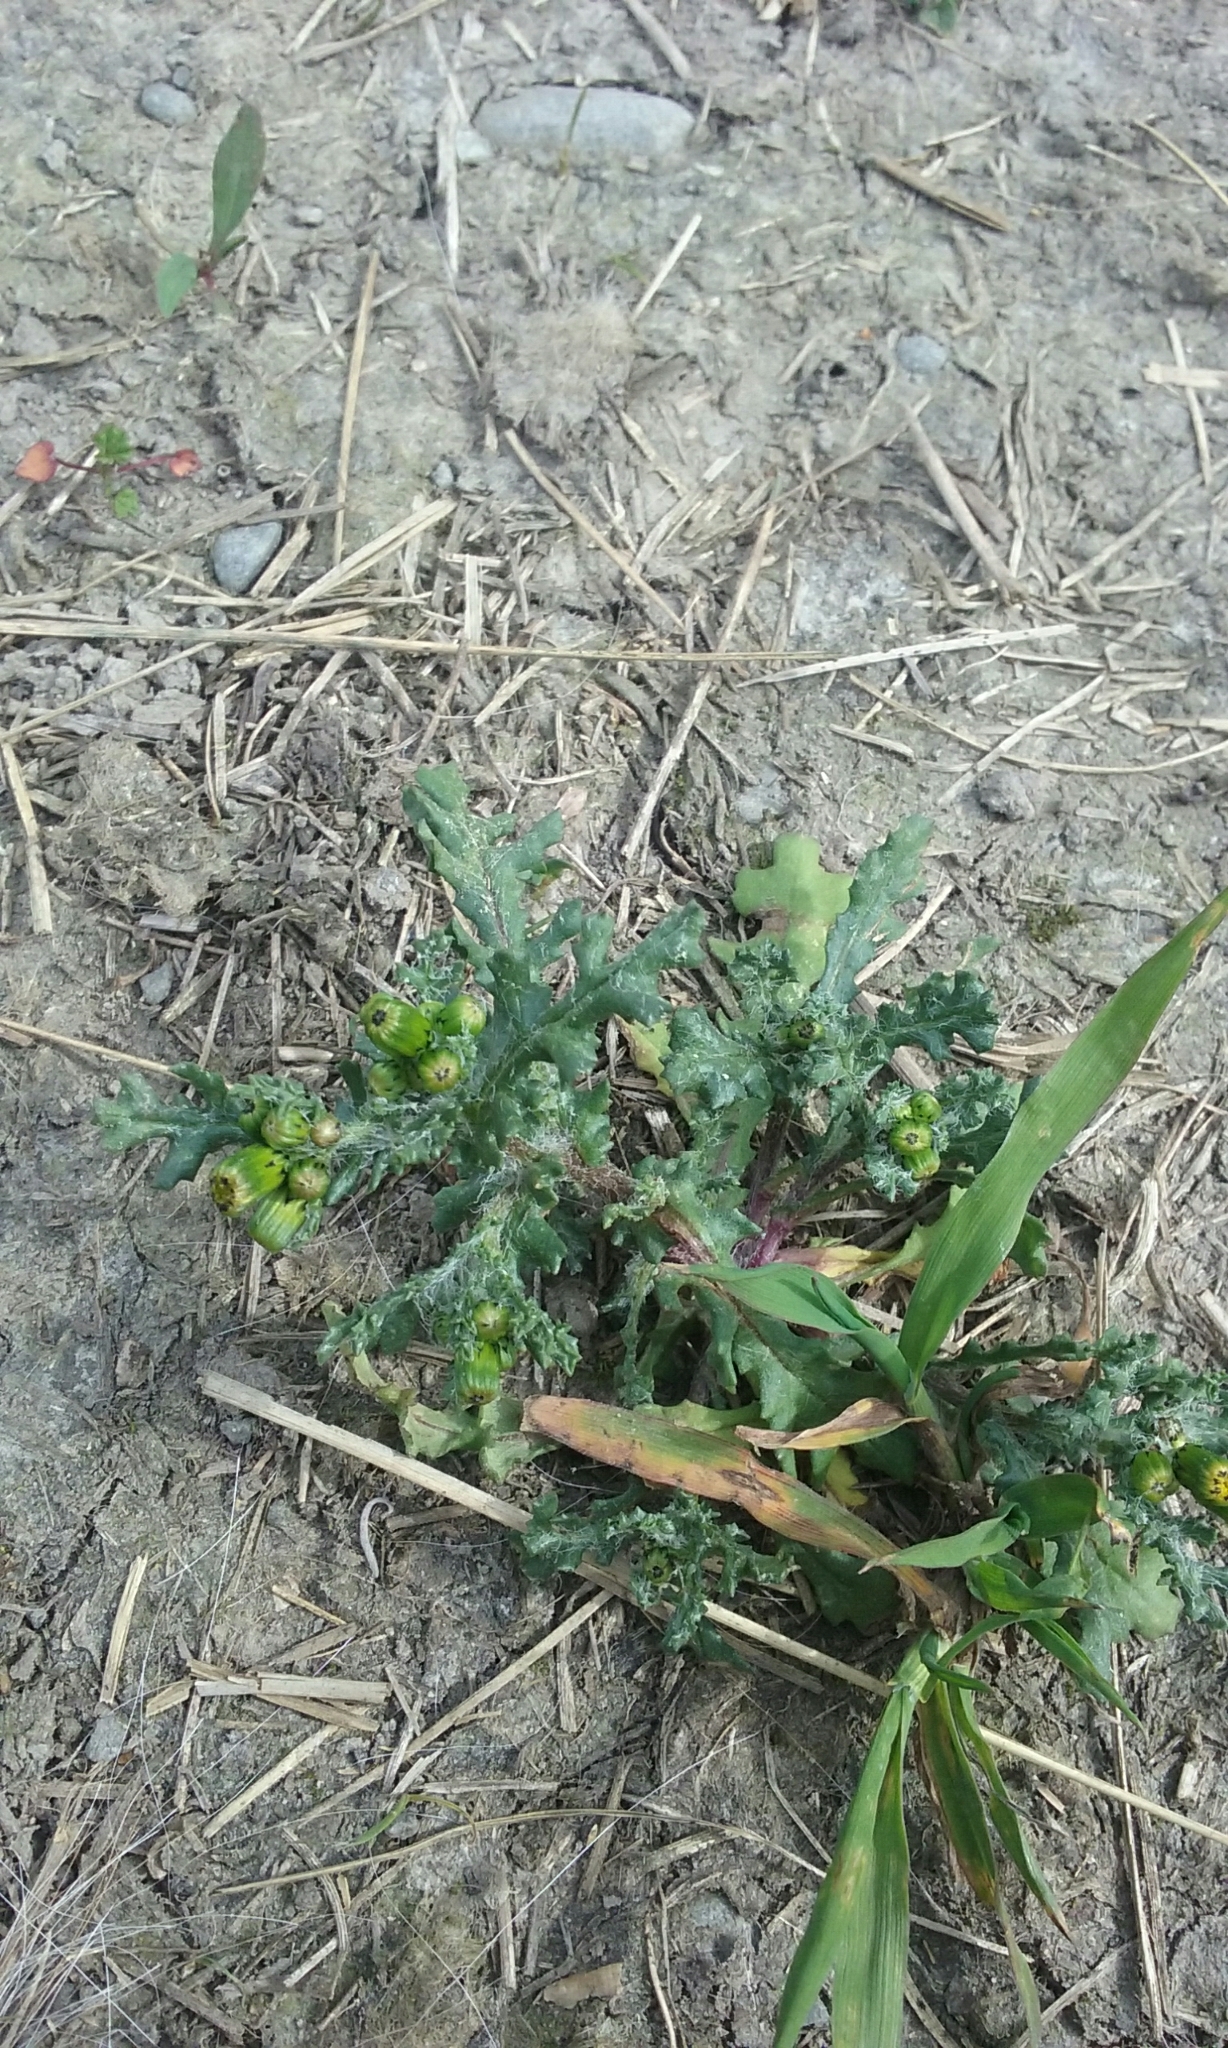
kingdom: Plantae
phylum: Tracheophyta
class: Magnoliopsida
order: Asterales
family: Asteraceae
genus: Senecio
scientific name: Senecio vulgaris
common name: Old-man-in-the-spring
